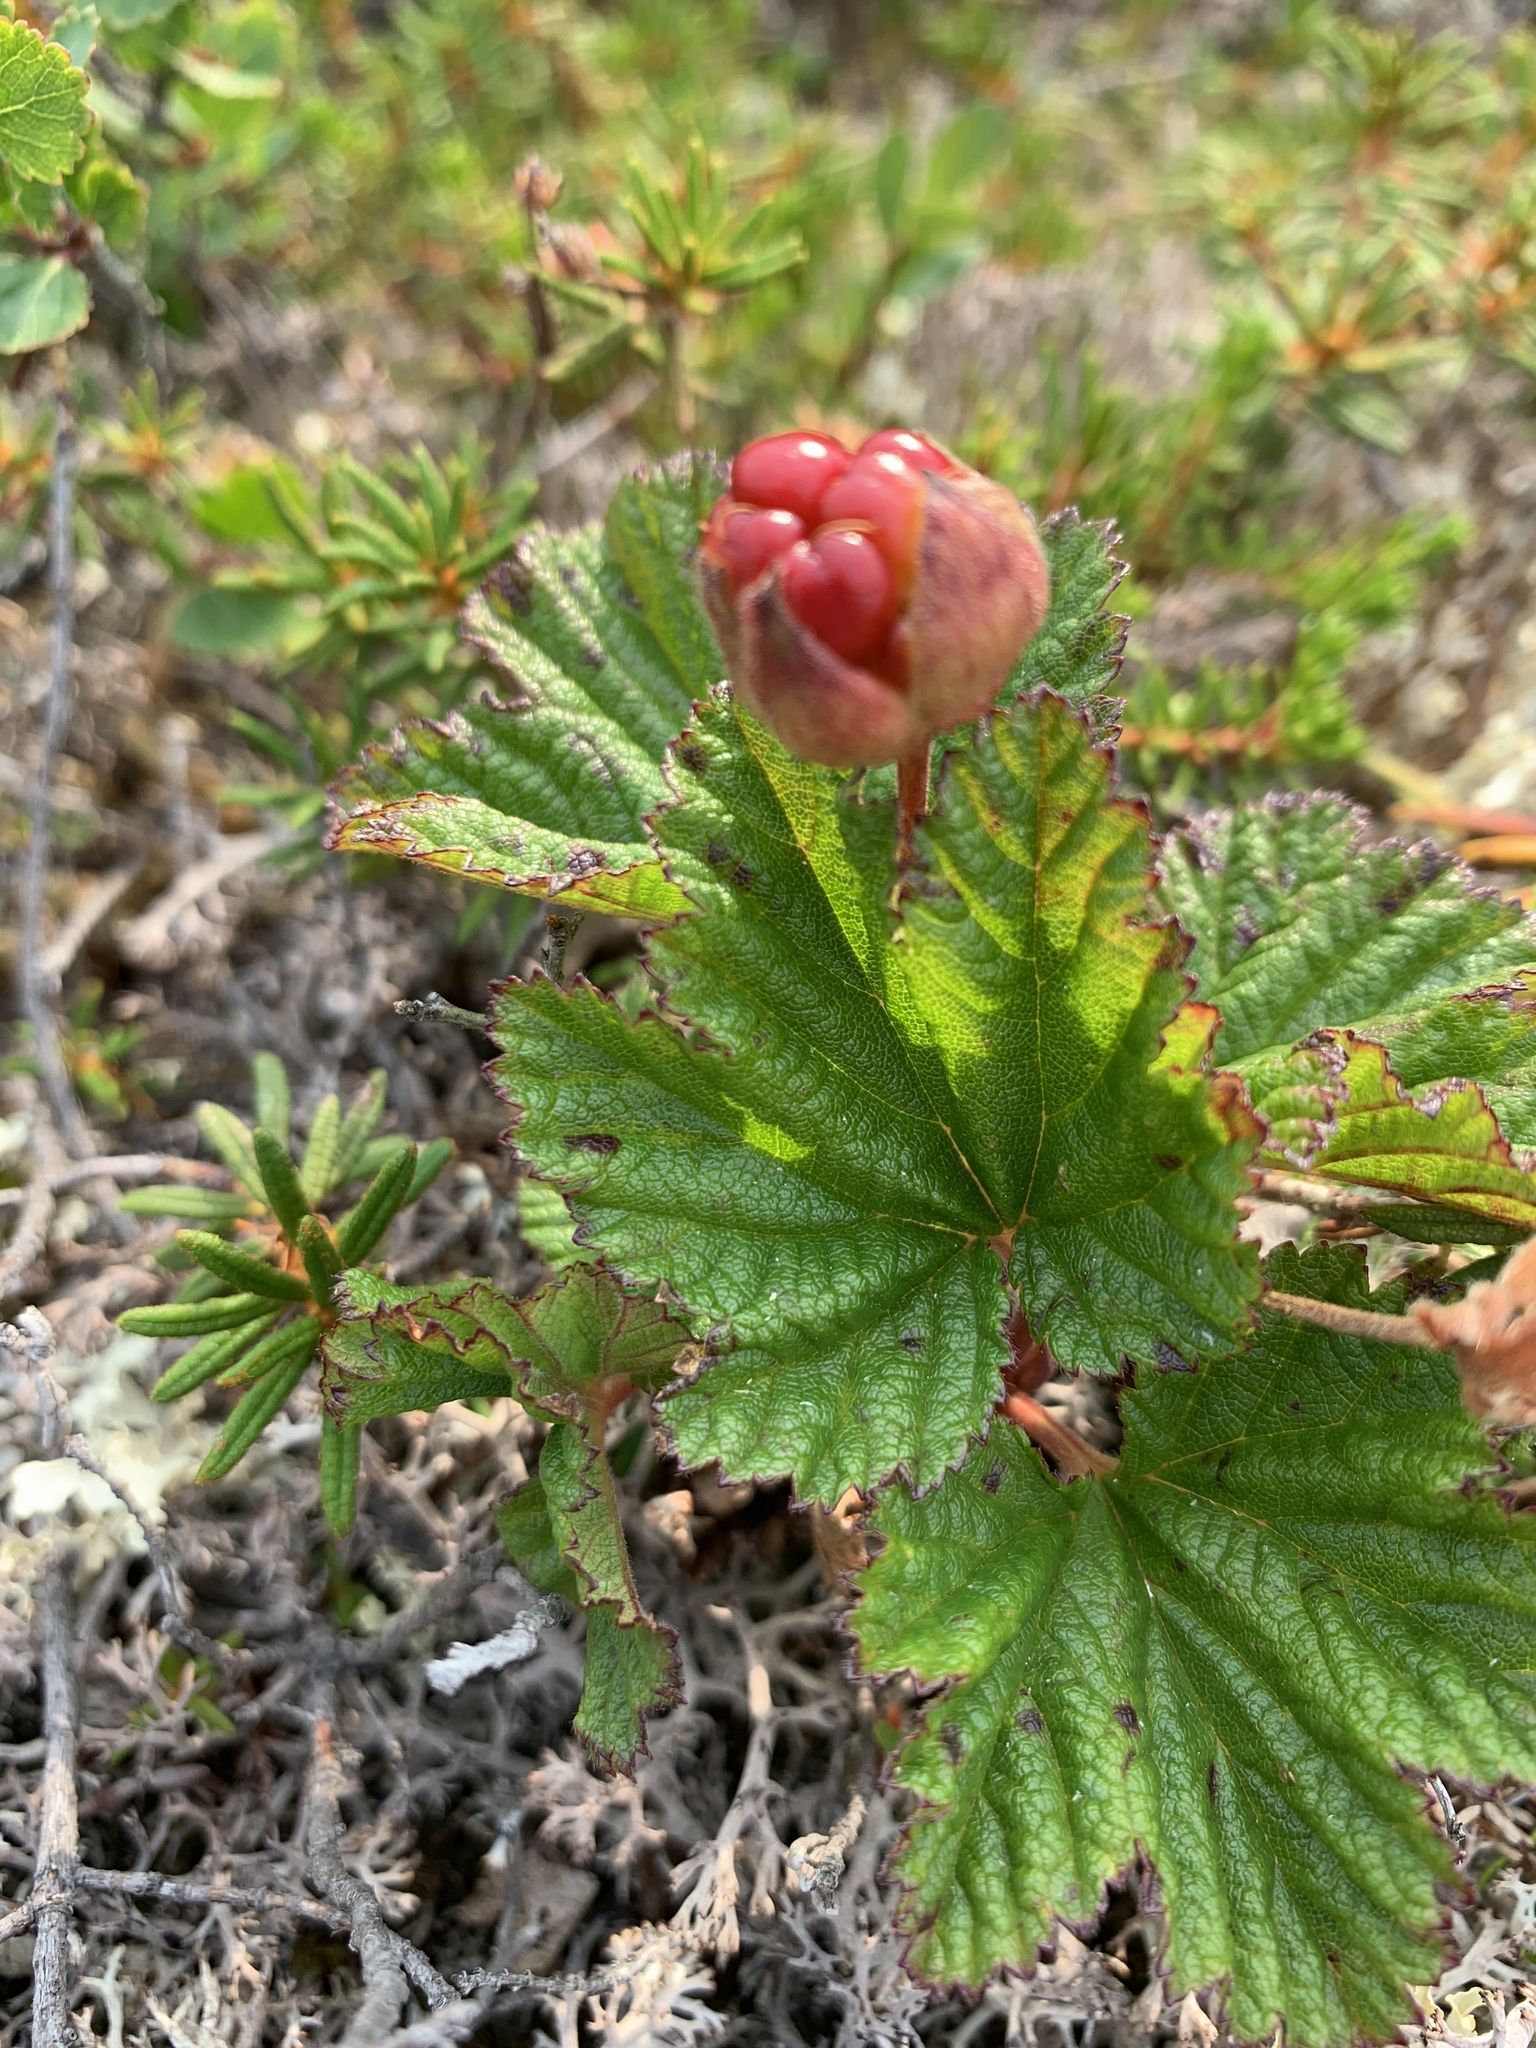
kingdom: Plantae
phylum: Tracheophyta
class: Magnoliopsida
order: Rosales
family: Rosaceae
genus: Rubus
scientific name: Rubus chamaemorus
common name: Cloudberry
